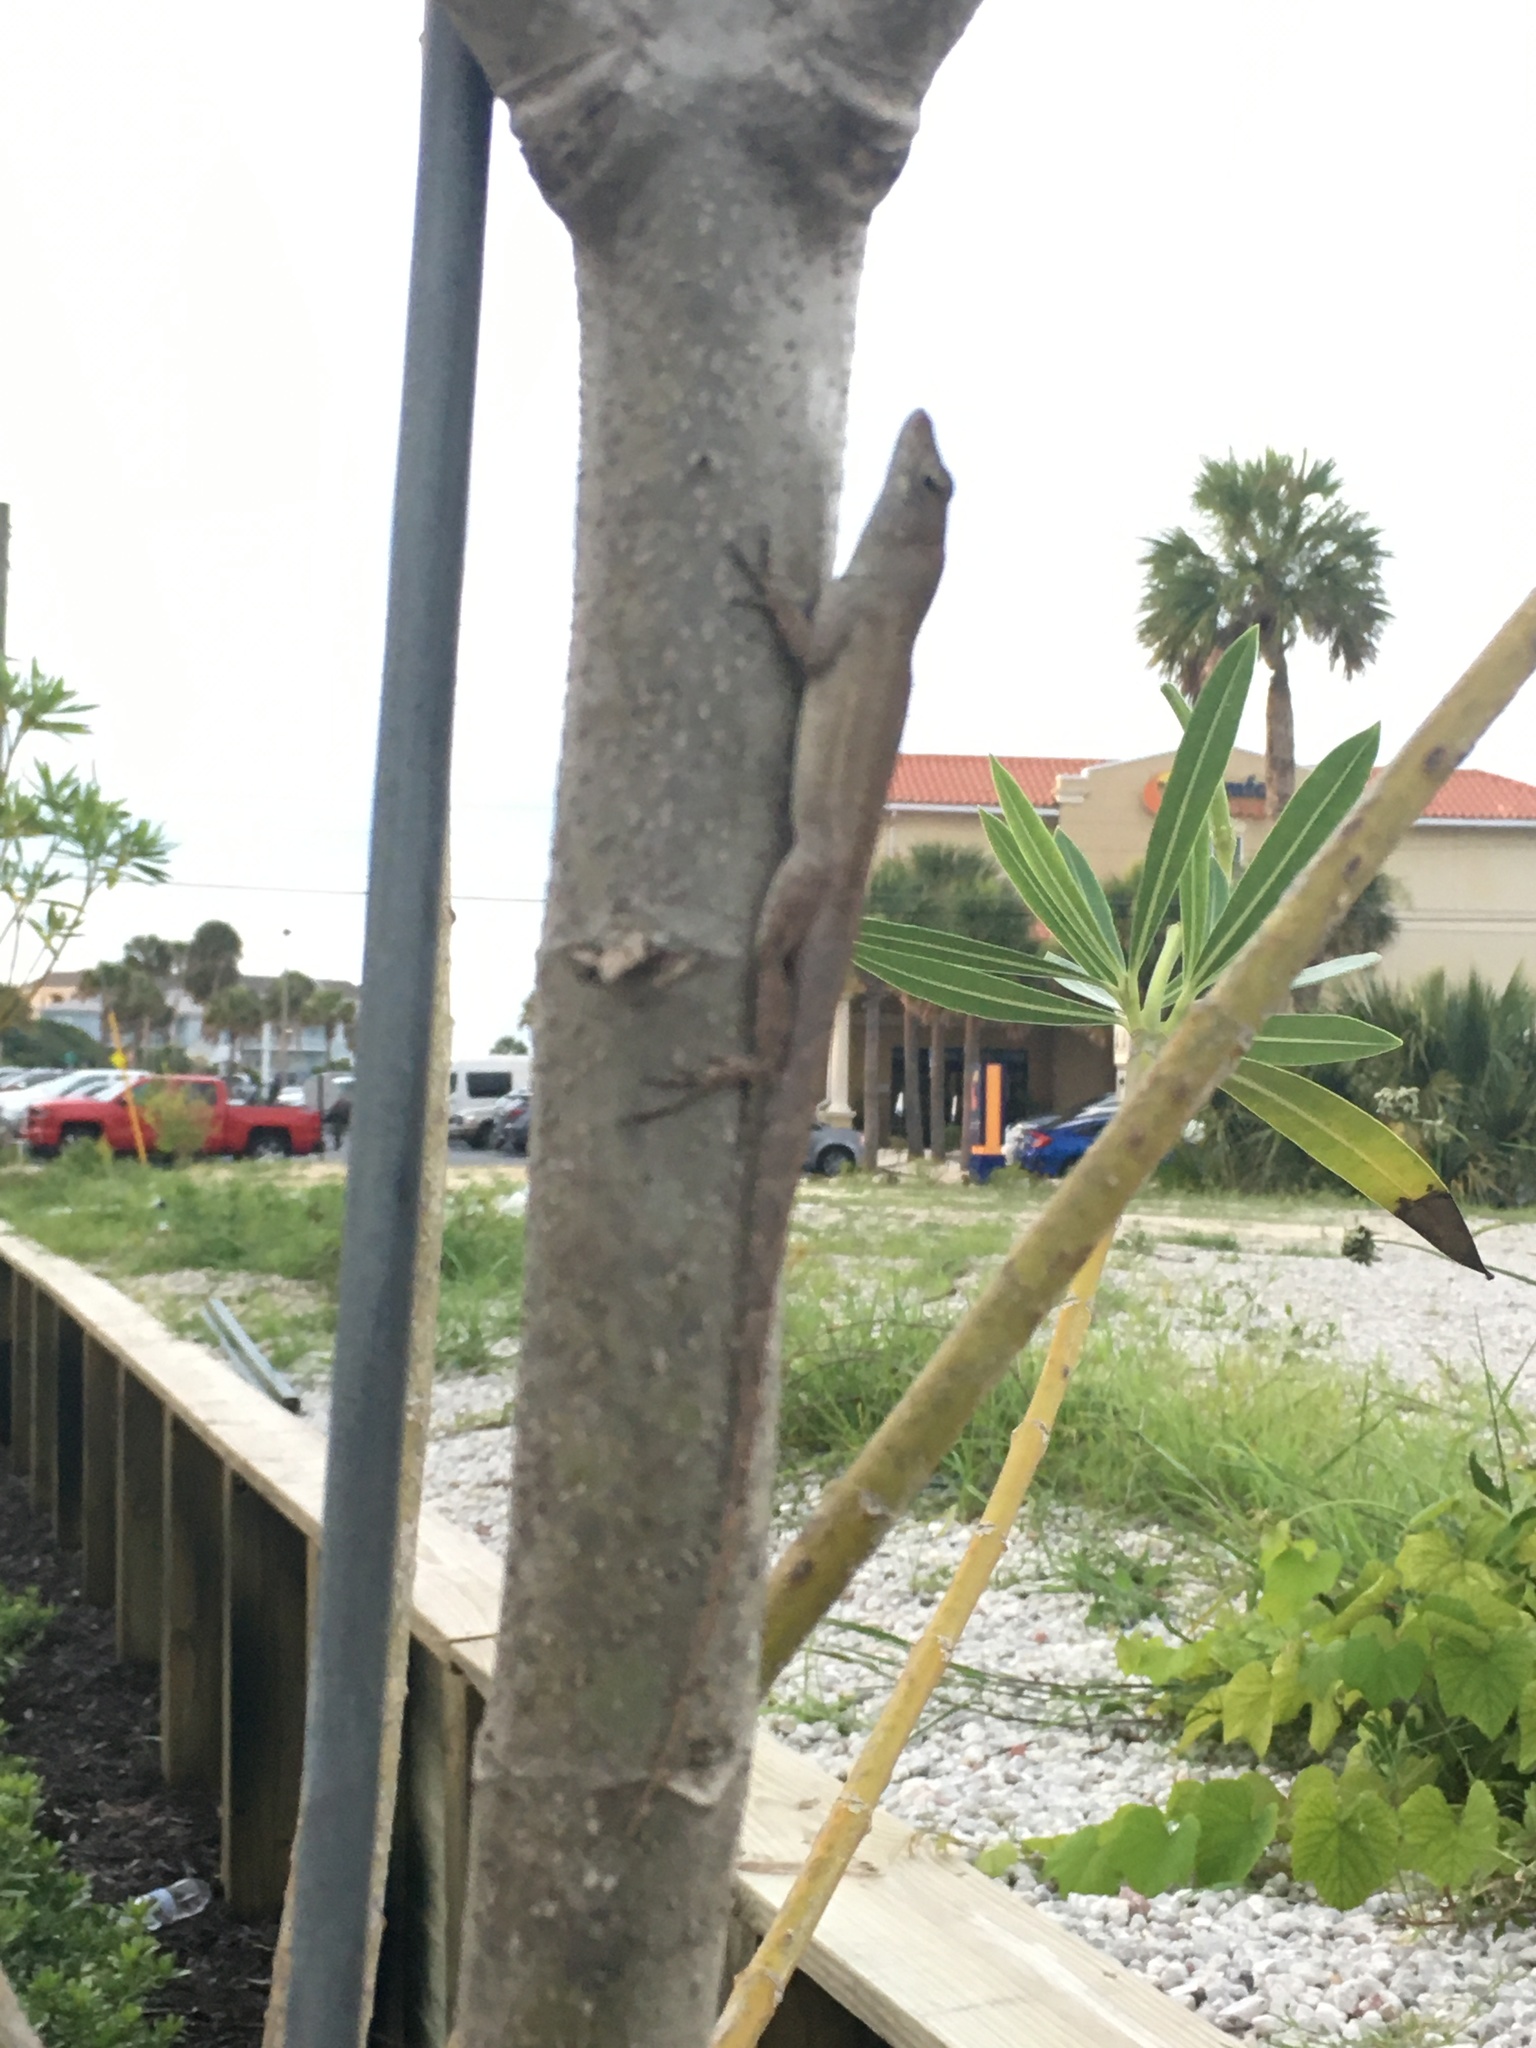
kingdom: Animalia
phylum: Chordata
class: Squamata
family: Dactyloidae
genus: Anolis
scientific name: Anolis sagrei
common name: Brown anole
